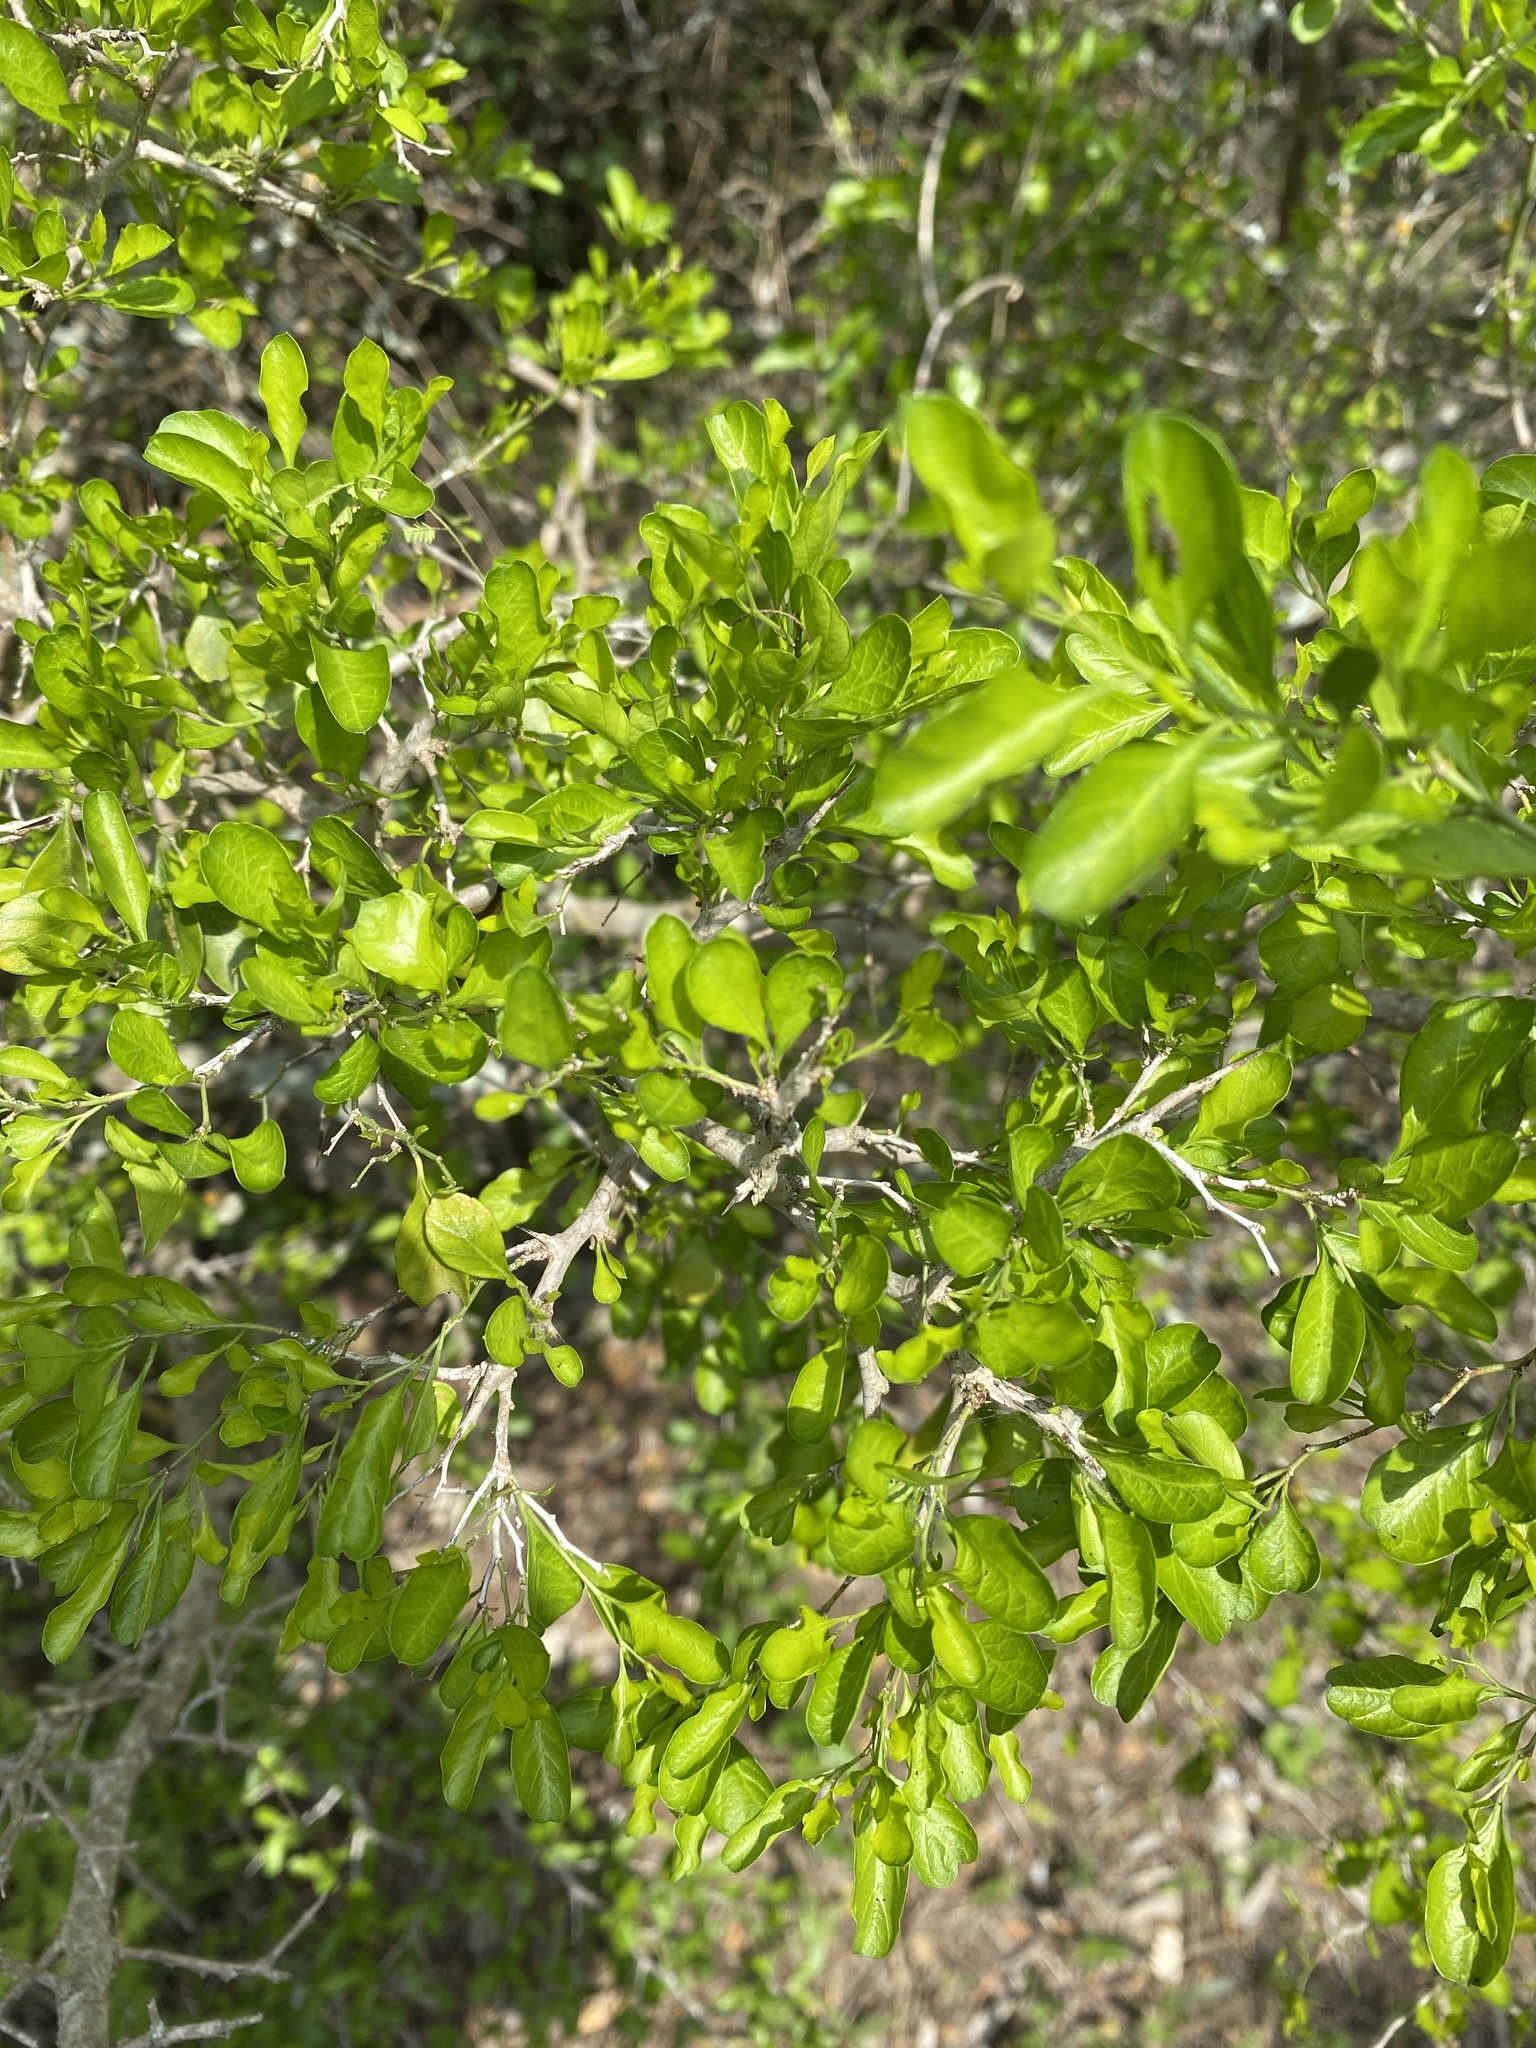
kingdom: Plantae
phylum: Tracheophyta
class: Magnoliopsida
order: Rosales
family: Rhamnaceae
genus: Condalia
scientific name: Condalia hookeri
